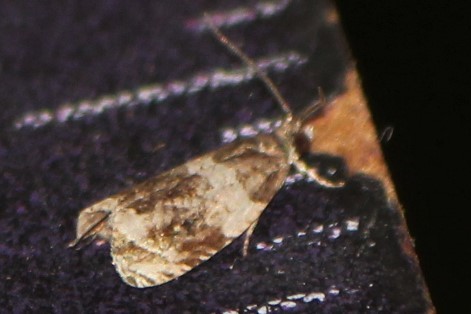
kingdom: Animalia
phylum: Arthropoda
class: Insecta
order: Lepidoptera
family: Tortricidae
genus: Olethreutes
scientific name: Olethreutes fasciatana
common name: Banded olethreutes moth
